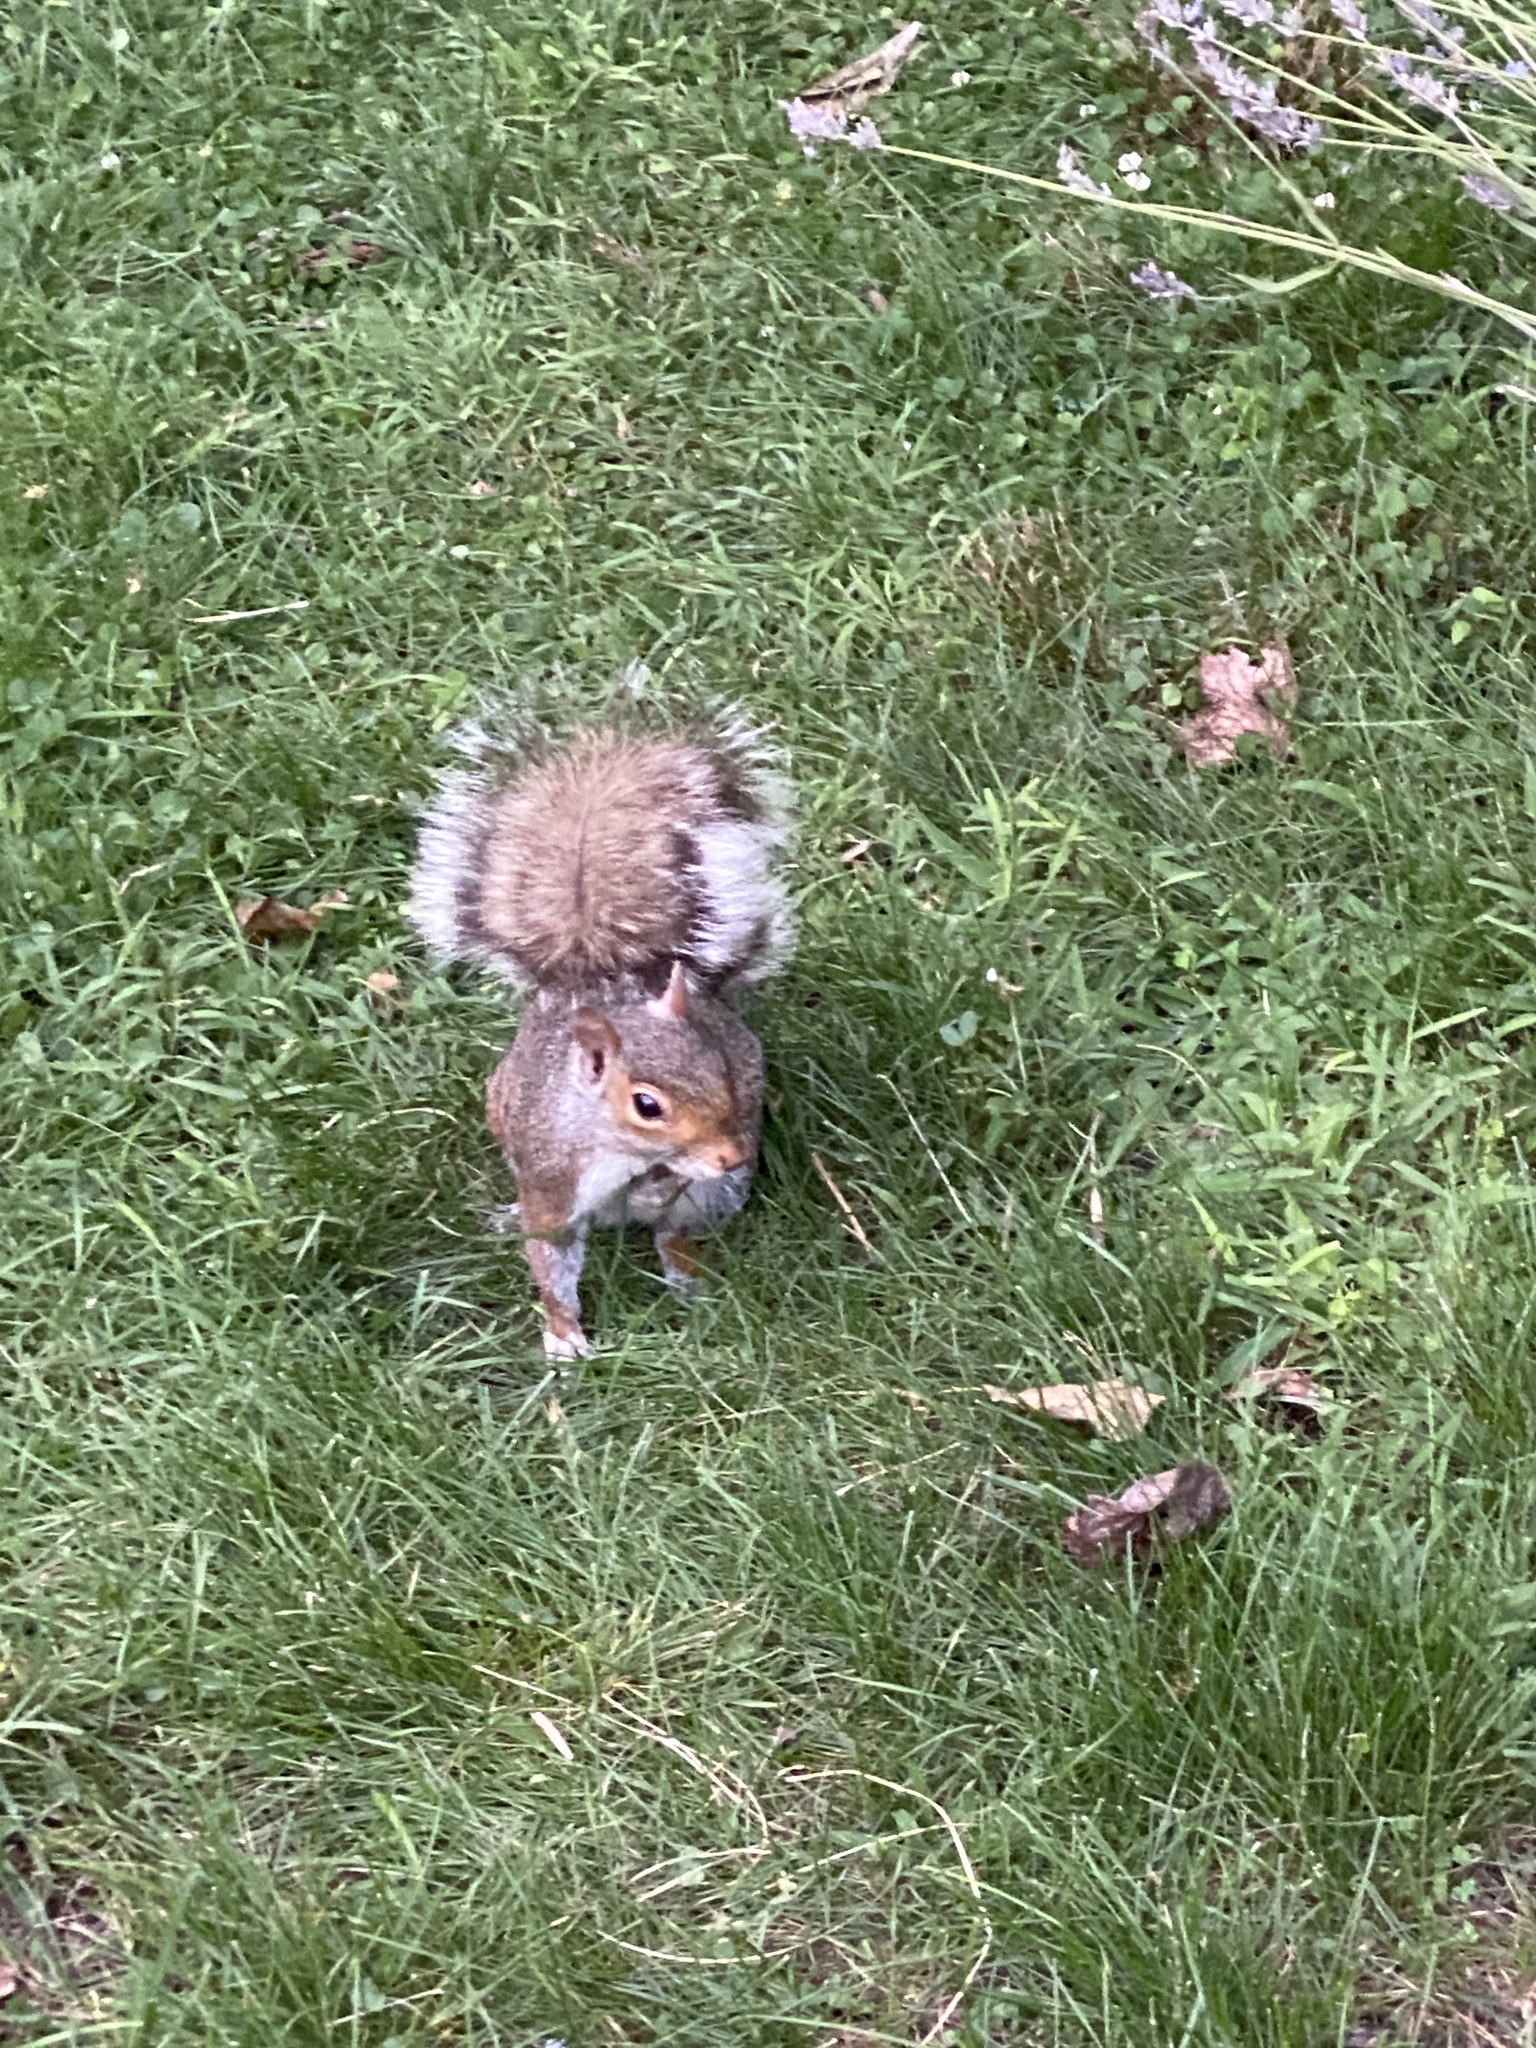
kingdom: Animalia
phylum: Chordata
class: Mammalia
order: Rodentia
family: Sciuridae
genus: Sciurus
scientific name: Sciurus carolinensis
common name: Eastern gray squirrel
